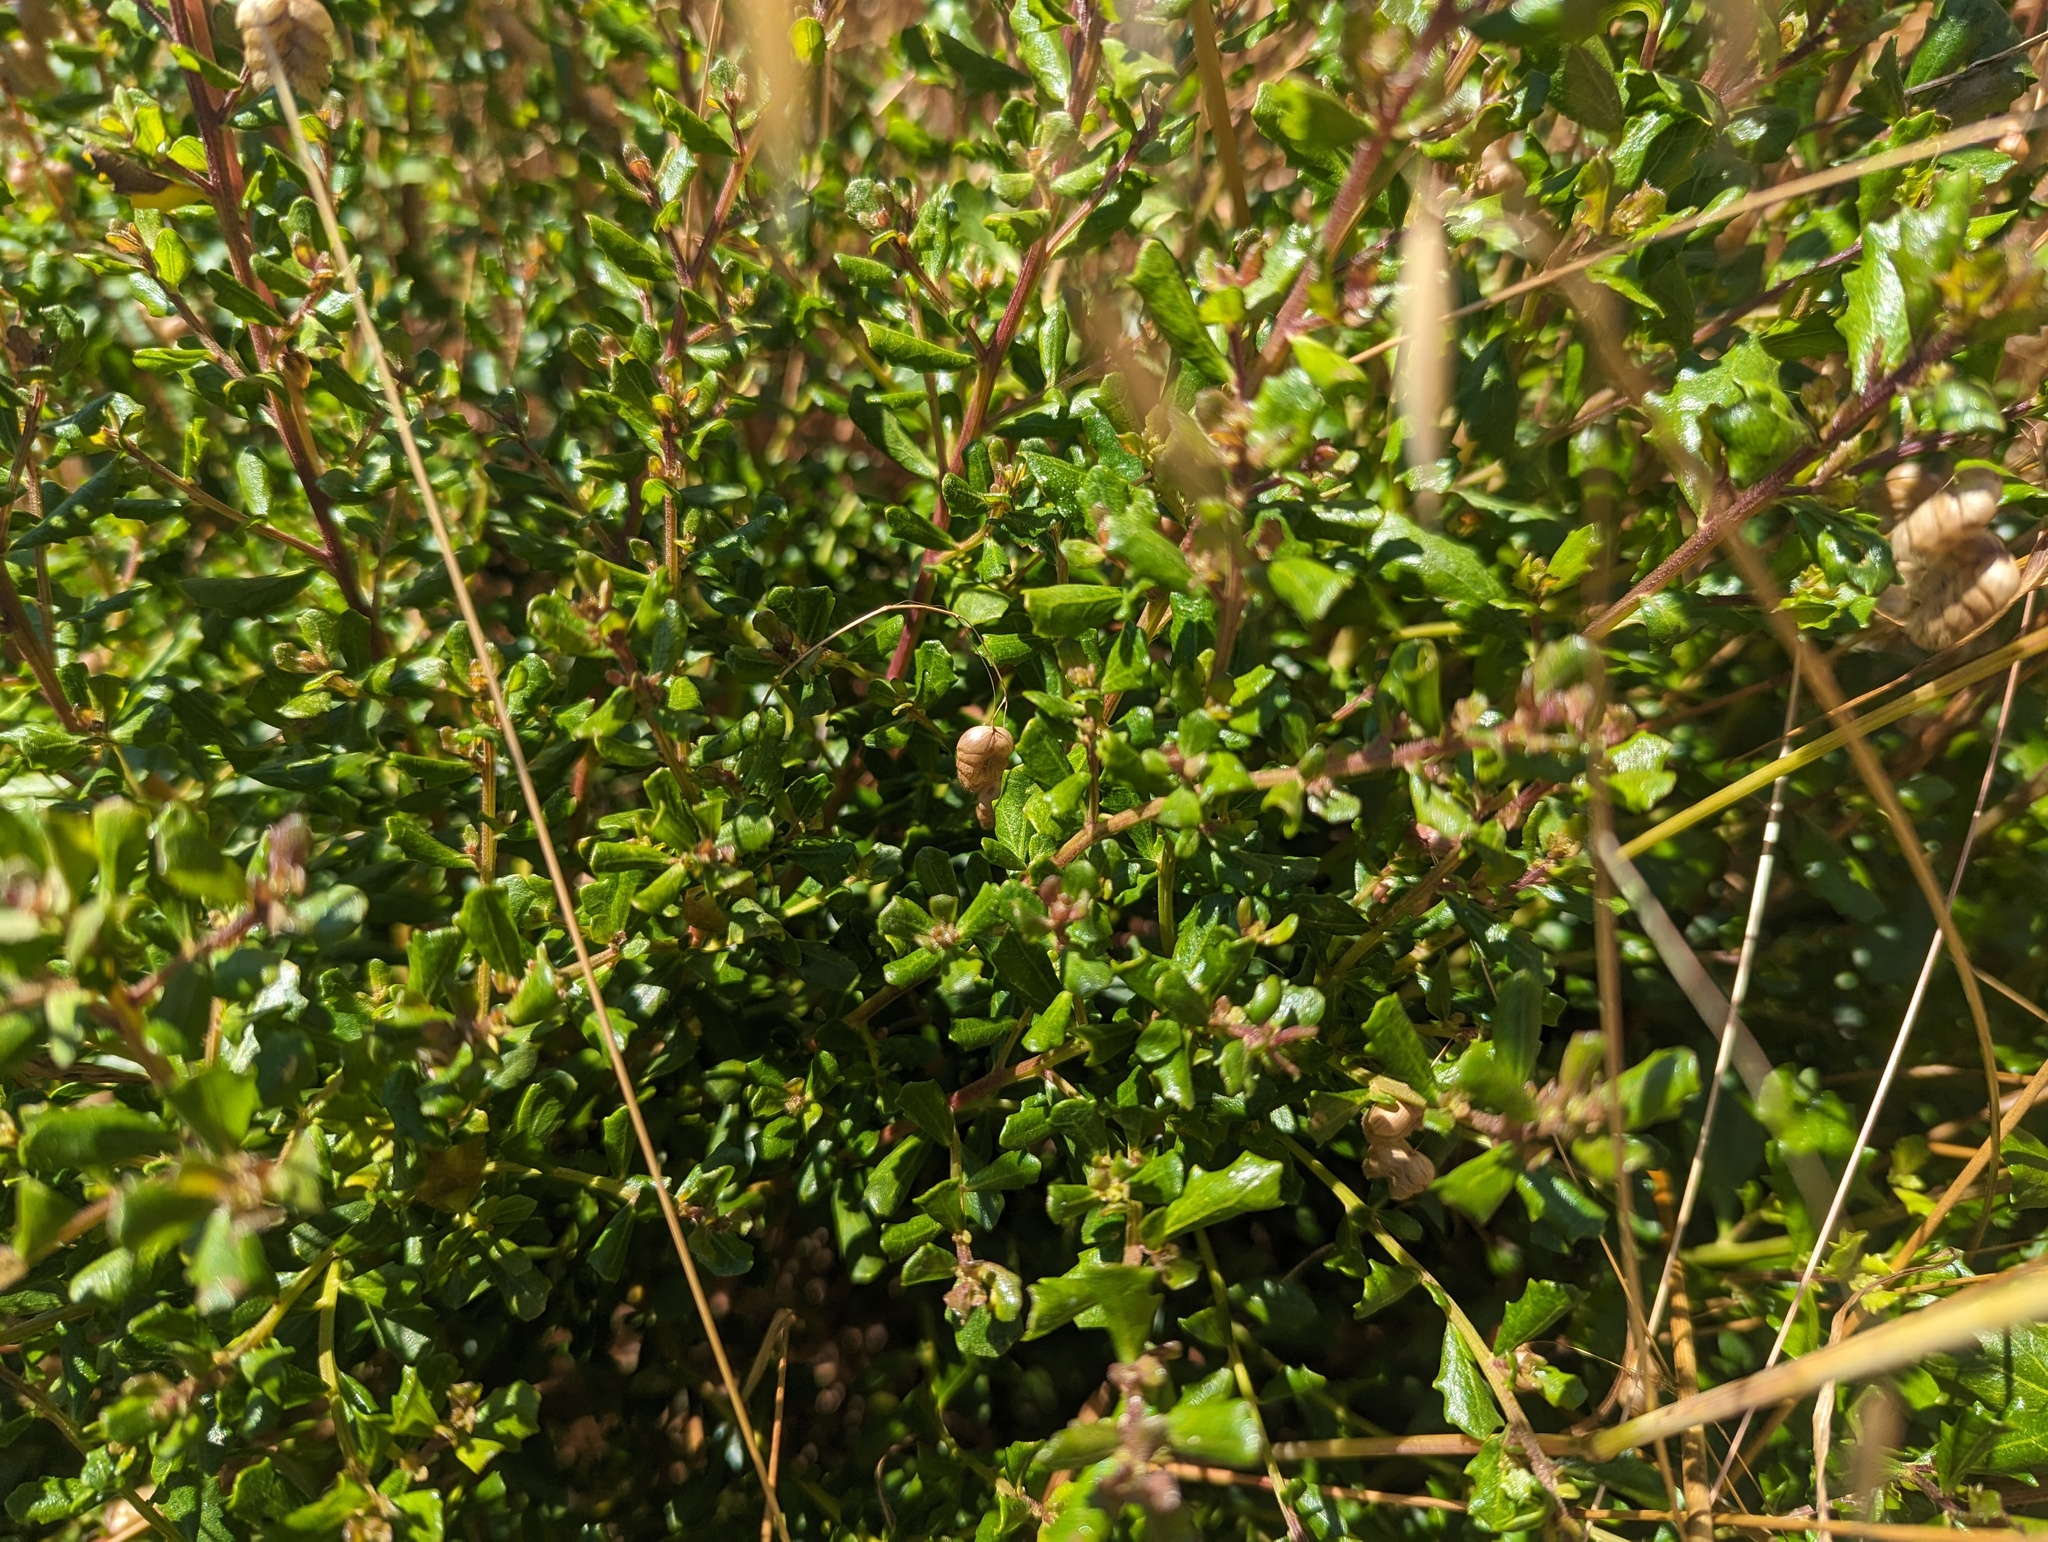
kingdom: Plantae
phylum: Tracheophyta
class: Magnoliopsida
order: Asterales
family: Asteraceae
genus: Baccharis
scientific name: Baccharis pilularis
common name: Coyotebrush
